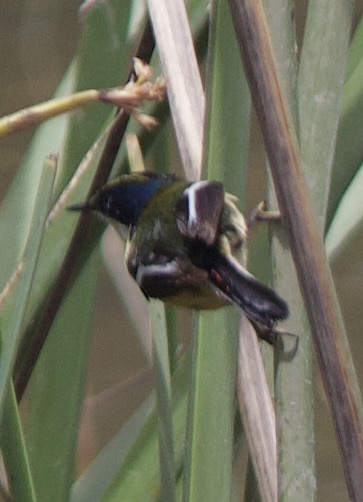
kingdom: Animalia
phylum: Chordata
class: Aves
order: Passeriformes
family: Tyrannidae
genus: Tachuris
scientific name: Tachuris rubrigastra
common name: Many-colored rush tyrant
